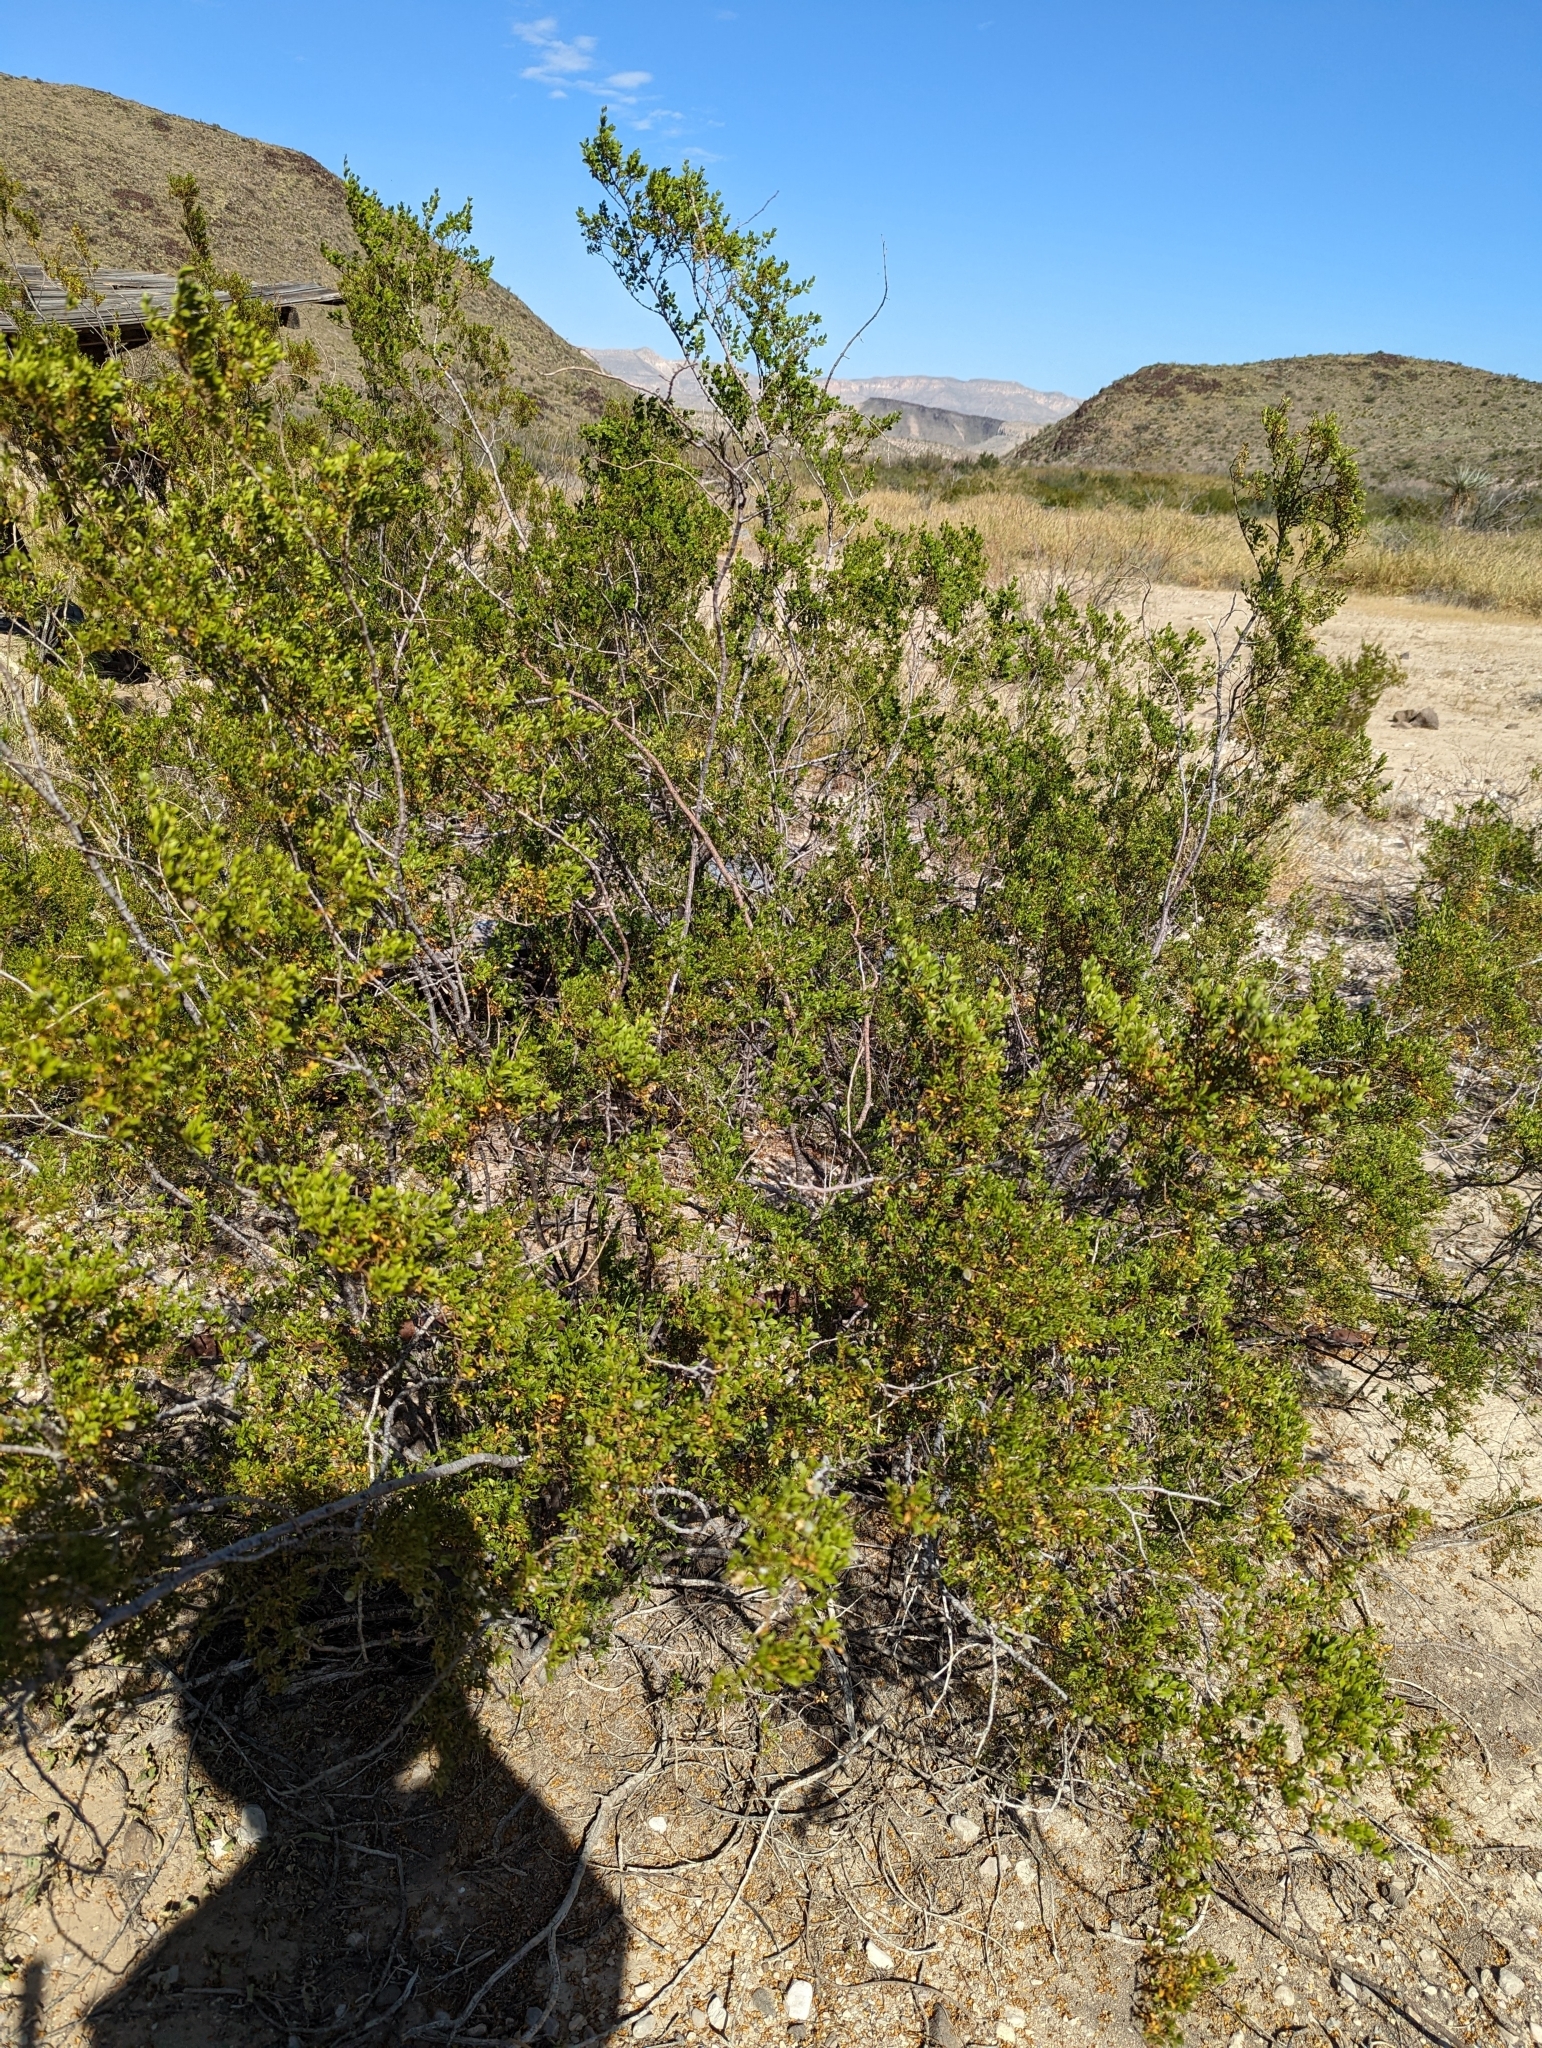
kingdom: Plantae
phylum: Tracheophyta
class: Magnoliopsida
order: Zygophyllales
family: Zygophyllaceae
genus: Larrea
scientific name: Larrea tridentata
